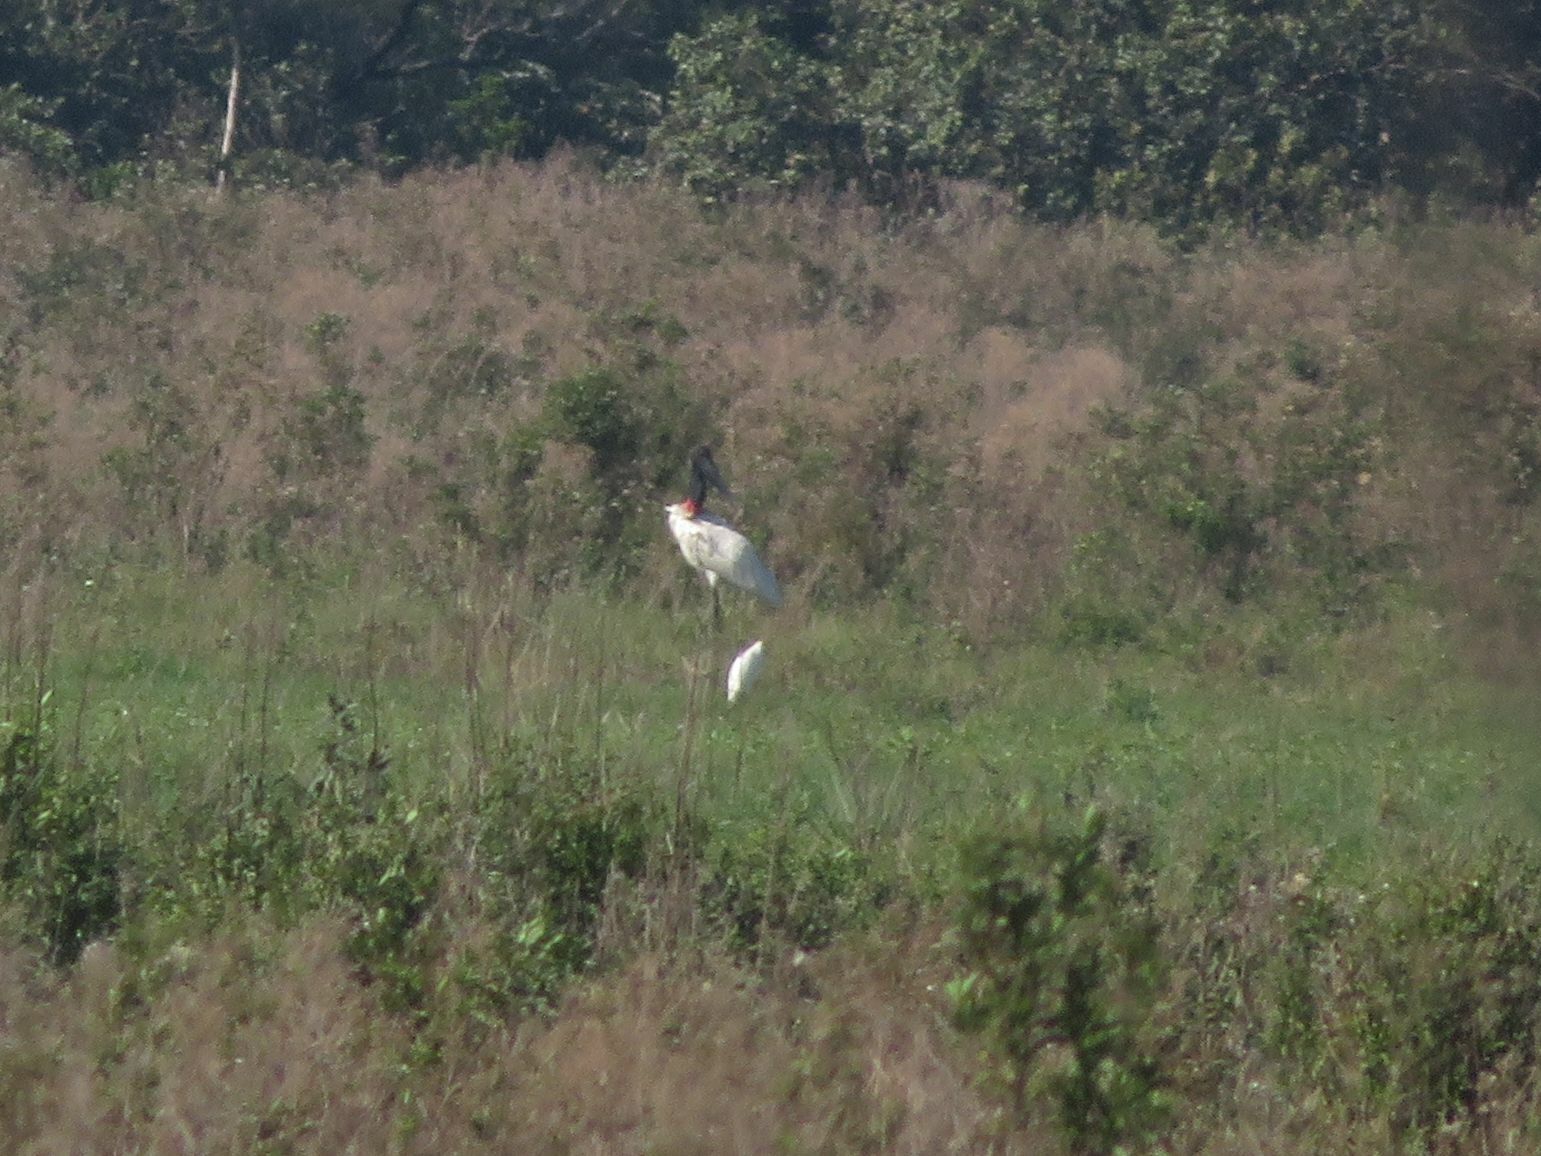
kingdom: Animalia
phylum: Chordata
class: Aves
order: Ciconiiformes
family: Ciconiidae
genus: Jabiru
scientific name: Jabiru mycteria
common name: Jabiru
